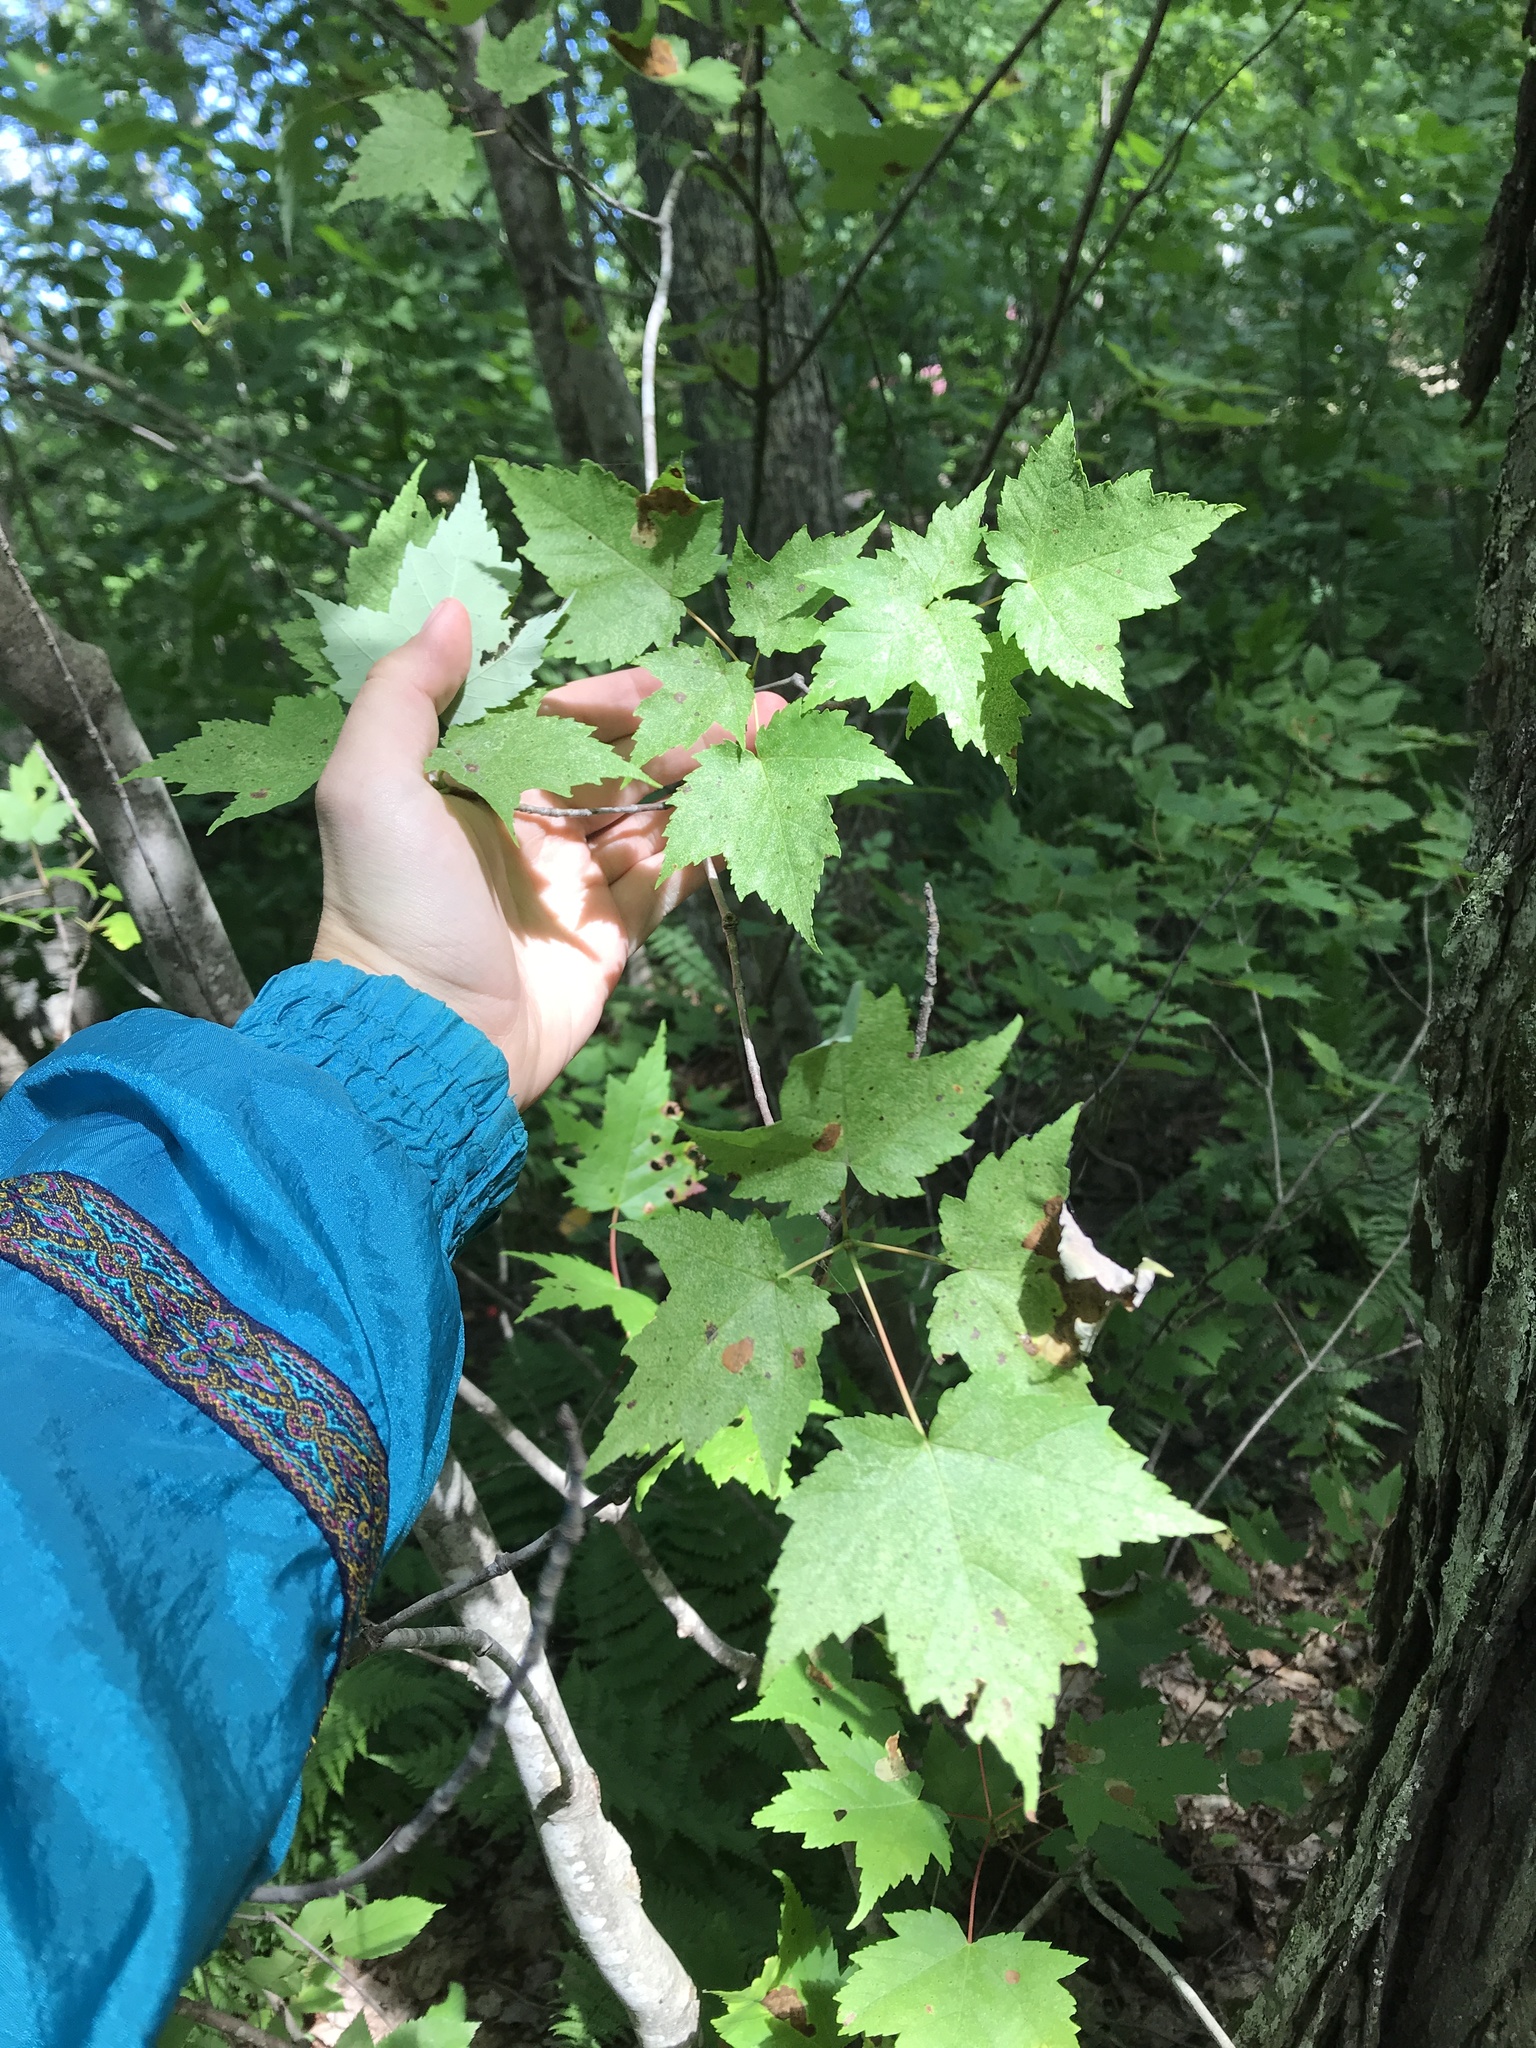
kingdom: Plantae
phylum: Tracheophyta
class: Magnoliopsida
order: Sapindales
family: Sapindaceae
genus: Acer
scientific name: Acer rubrum
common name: Red maple
